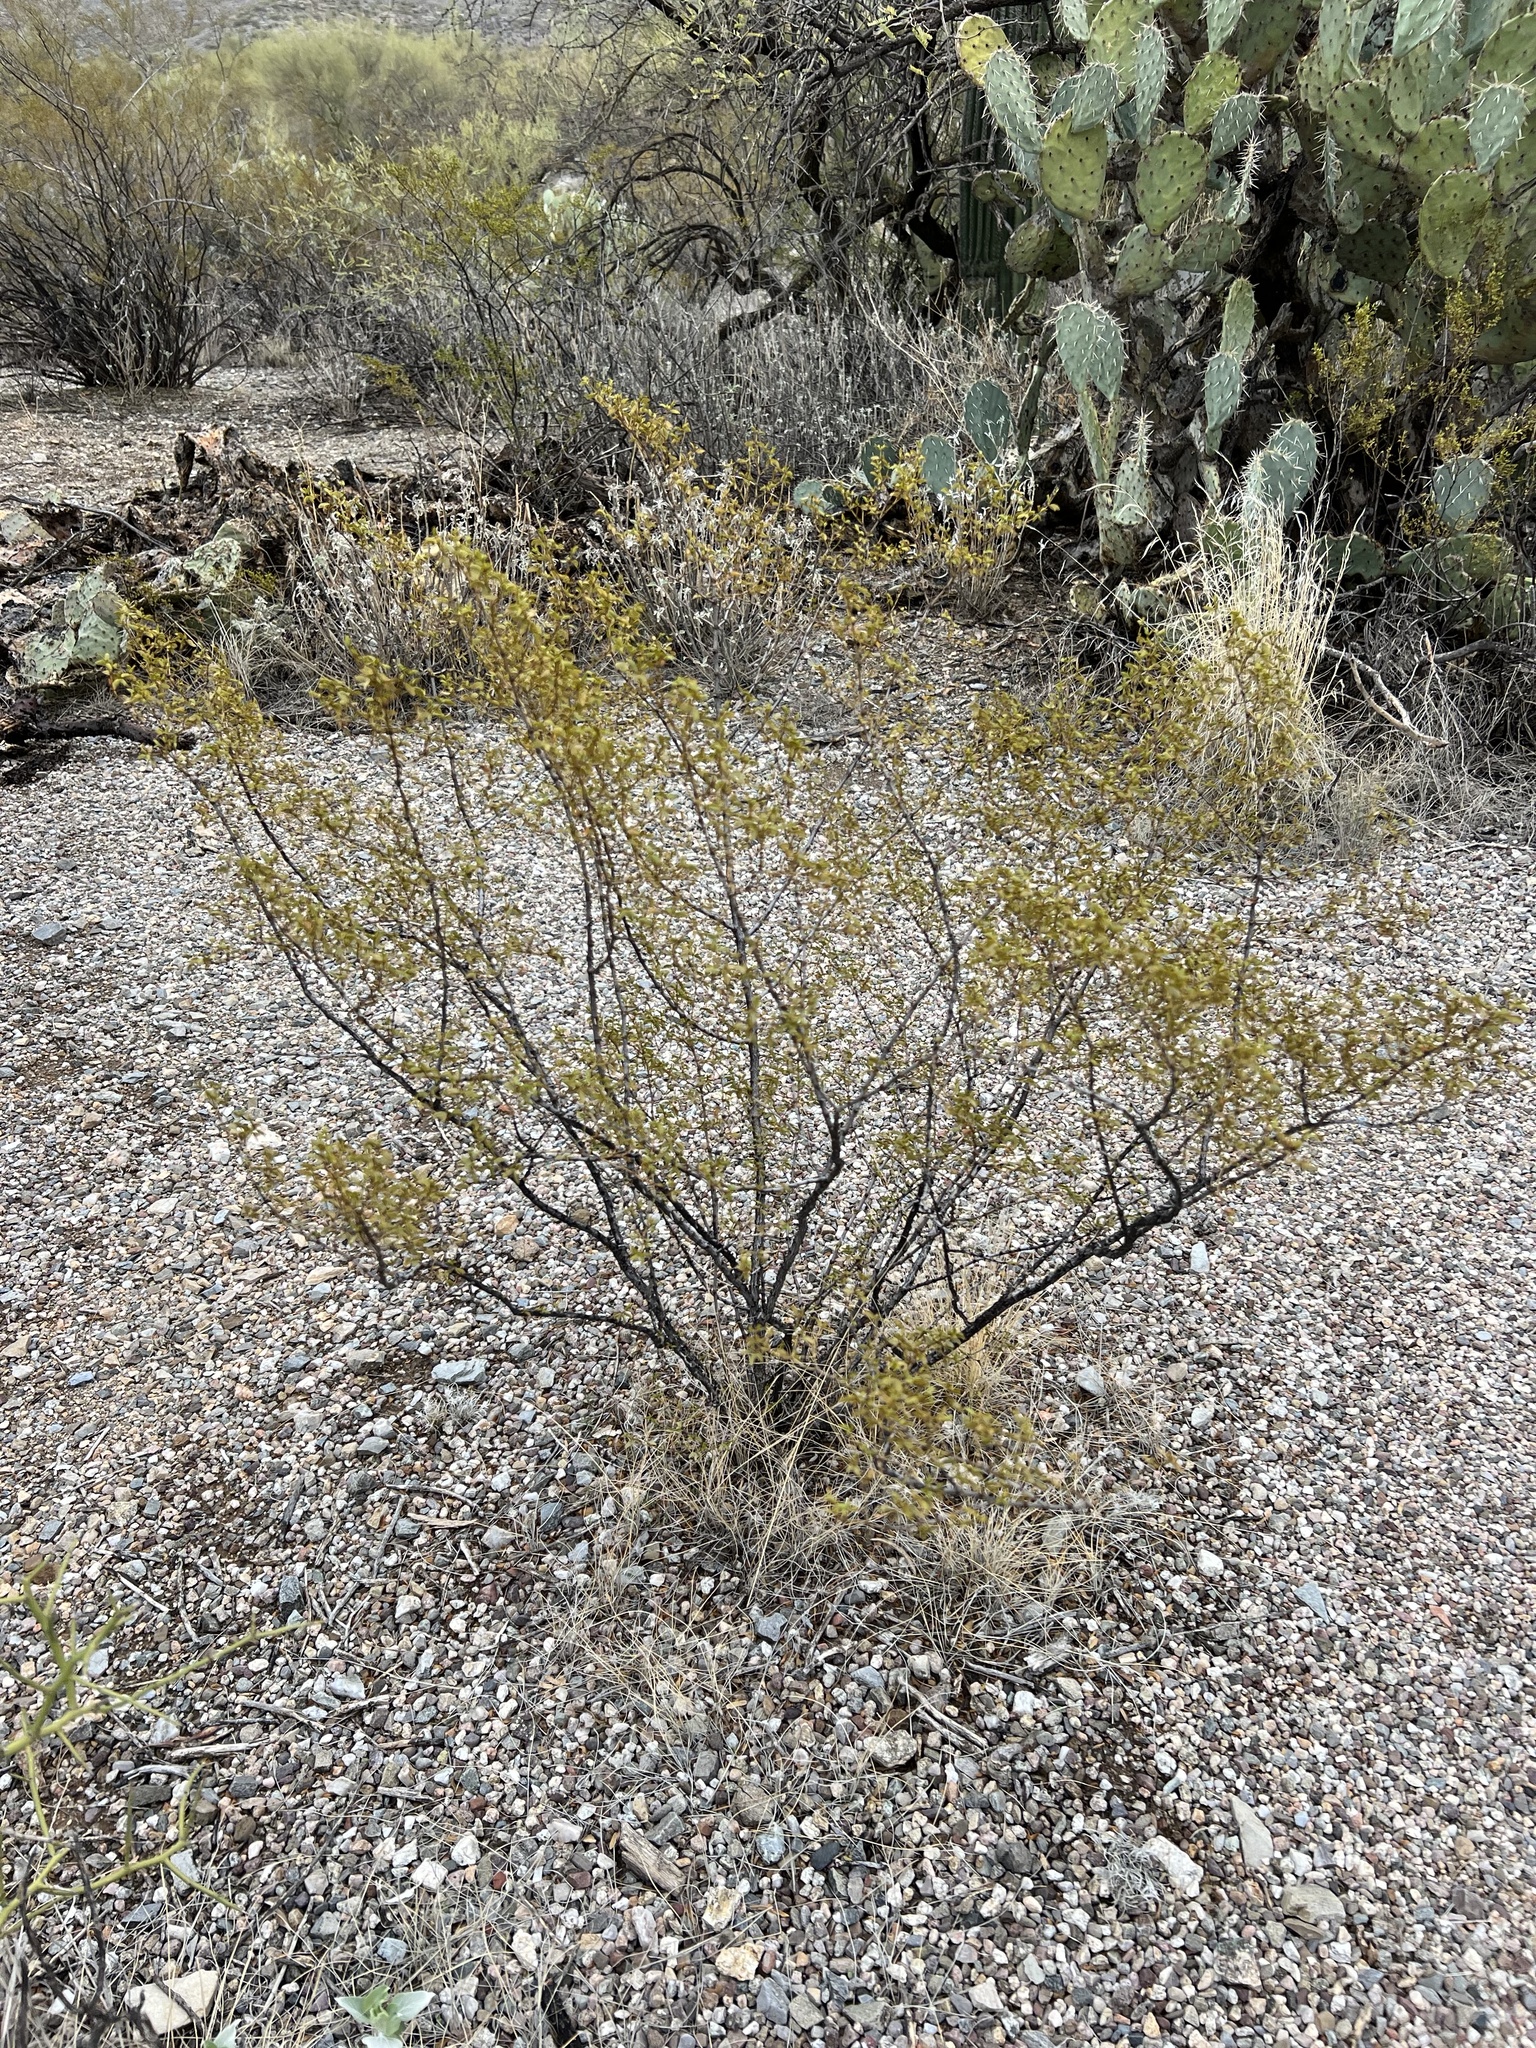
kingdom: Plantae
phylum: Tracheophyta
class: Magnoliopsida
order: Zygophyllales
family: Zygophyllaceae
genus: Larrea
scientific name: Larrea tridentata
